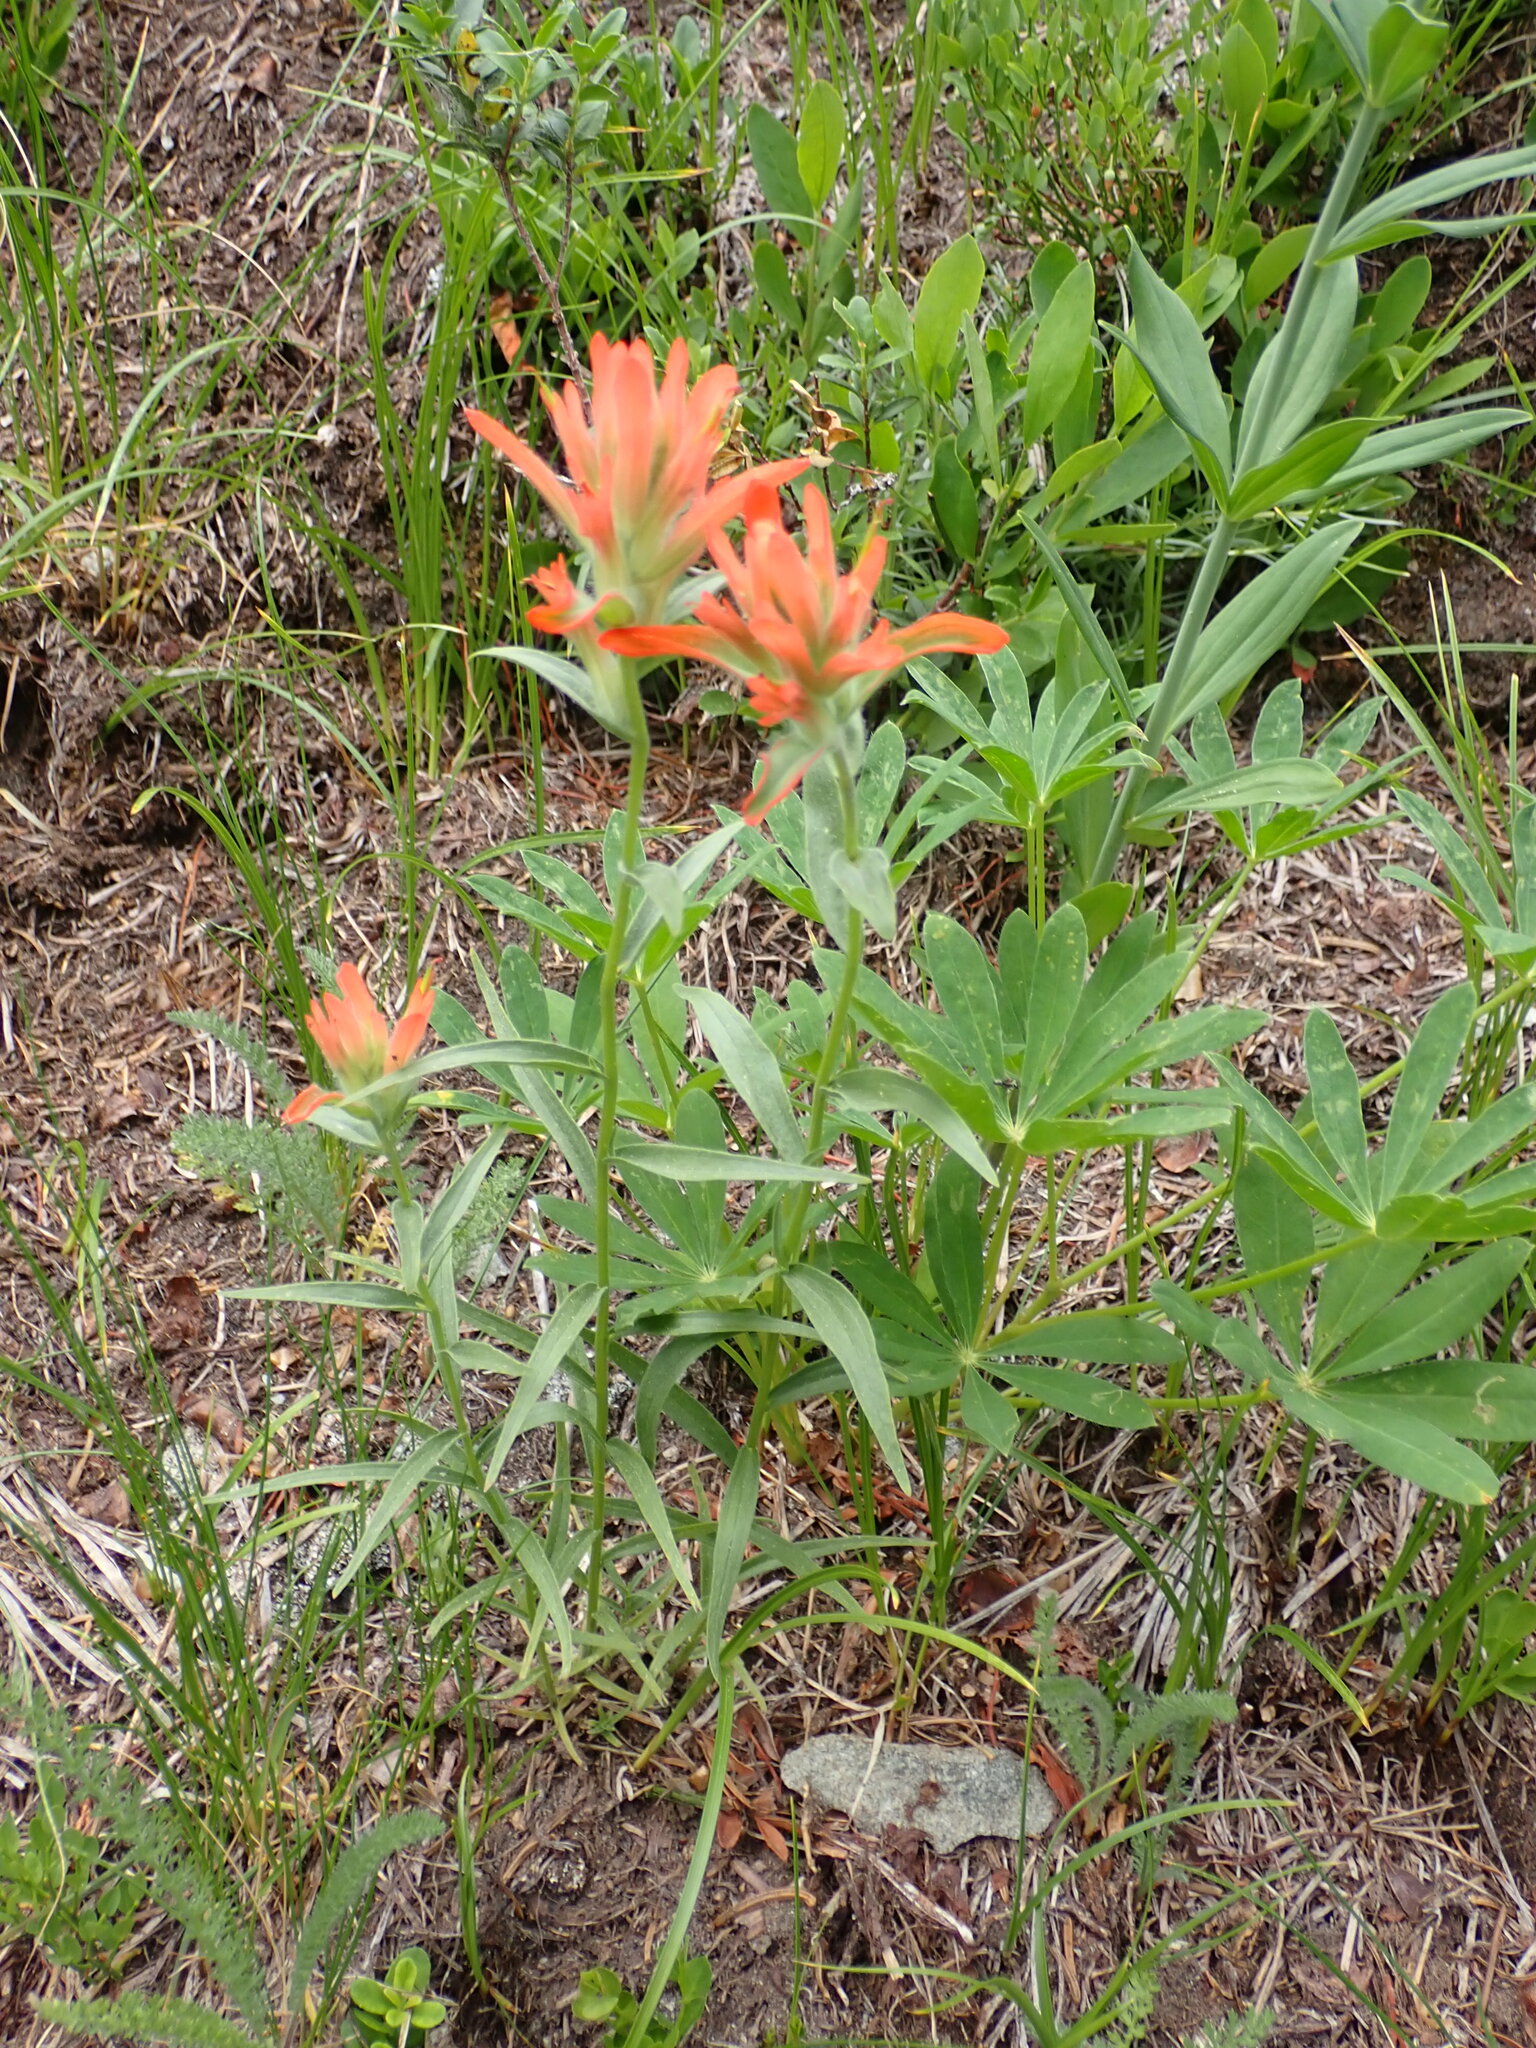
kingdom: Plantae
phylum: Tracheophyta
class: Magnoliopsida
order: Lamiales
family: Orobanchaceae
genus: Castilleja
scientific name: Castilleja miniata
